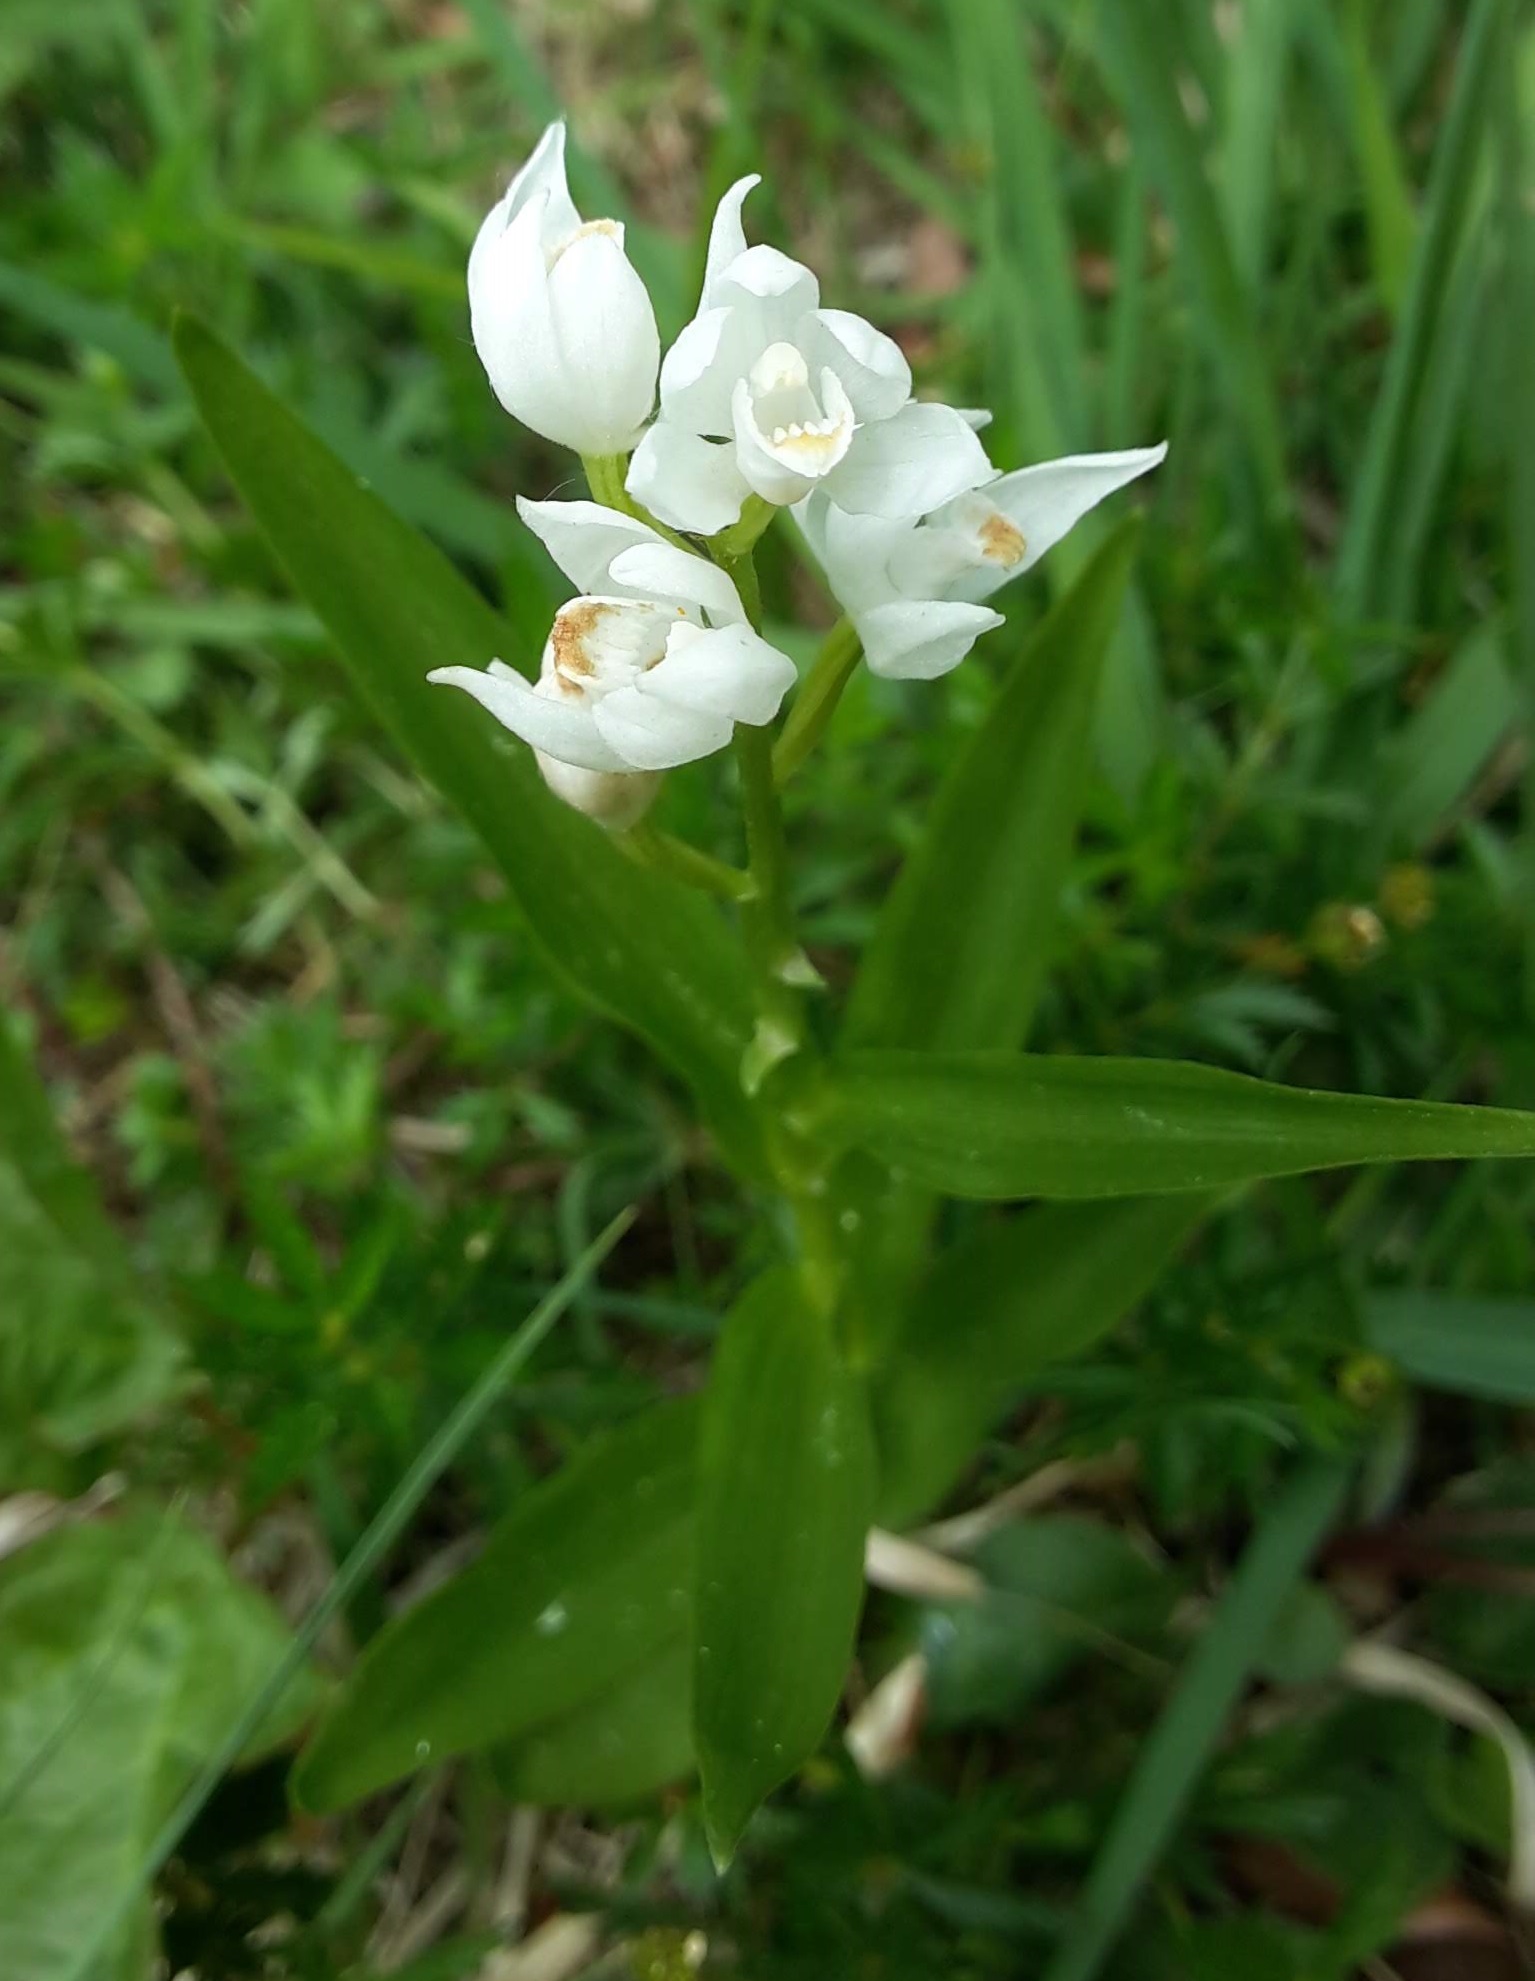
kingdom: Plantae
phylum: Tracheophyta
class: Liliopsida
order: Asparagales
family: Orchidaceae
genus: Cephalanthera
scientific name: Cephalanthera longifolia
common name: Narrow-leaved helleborine
